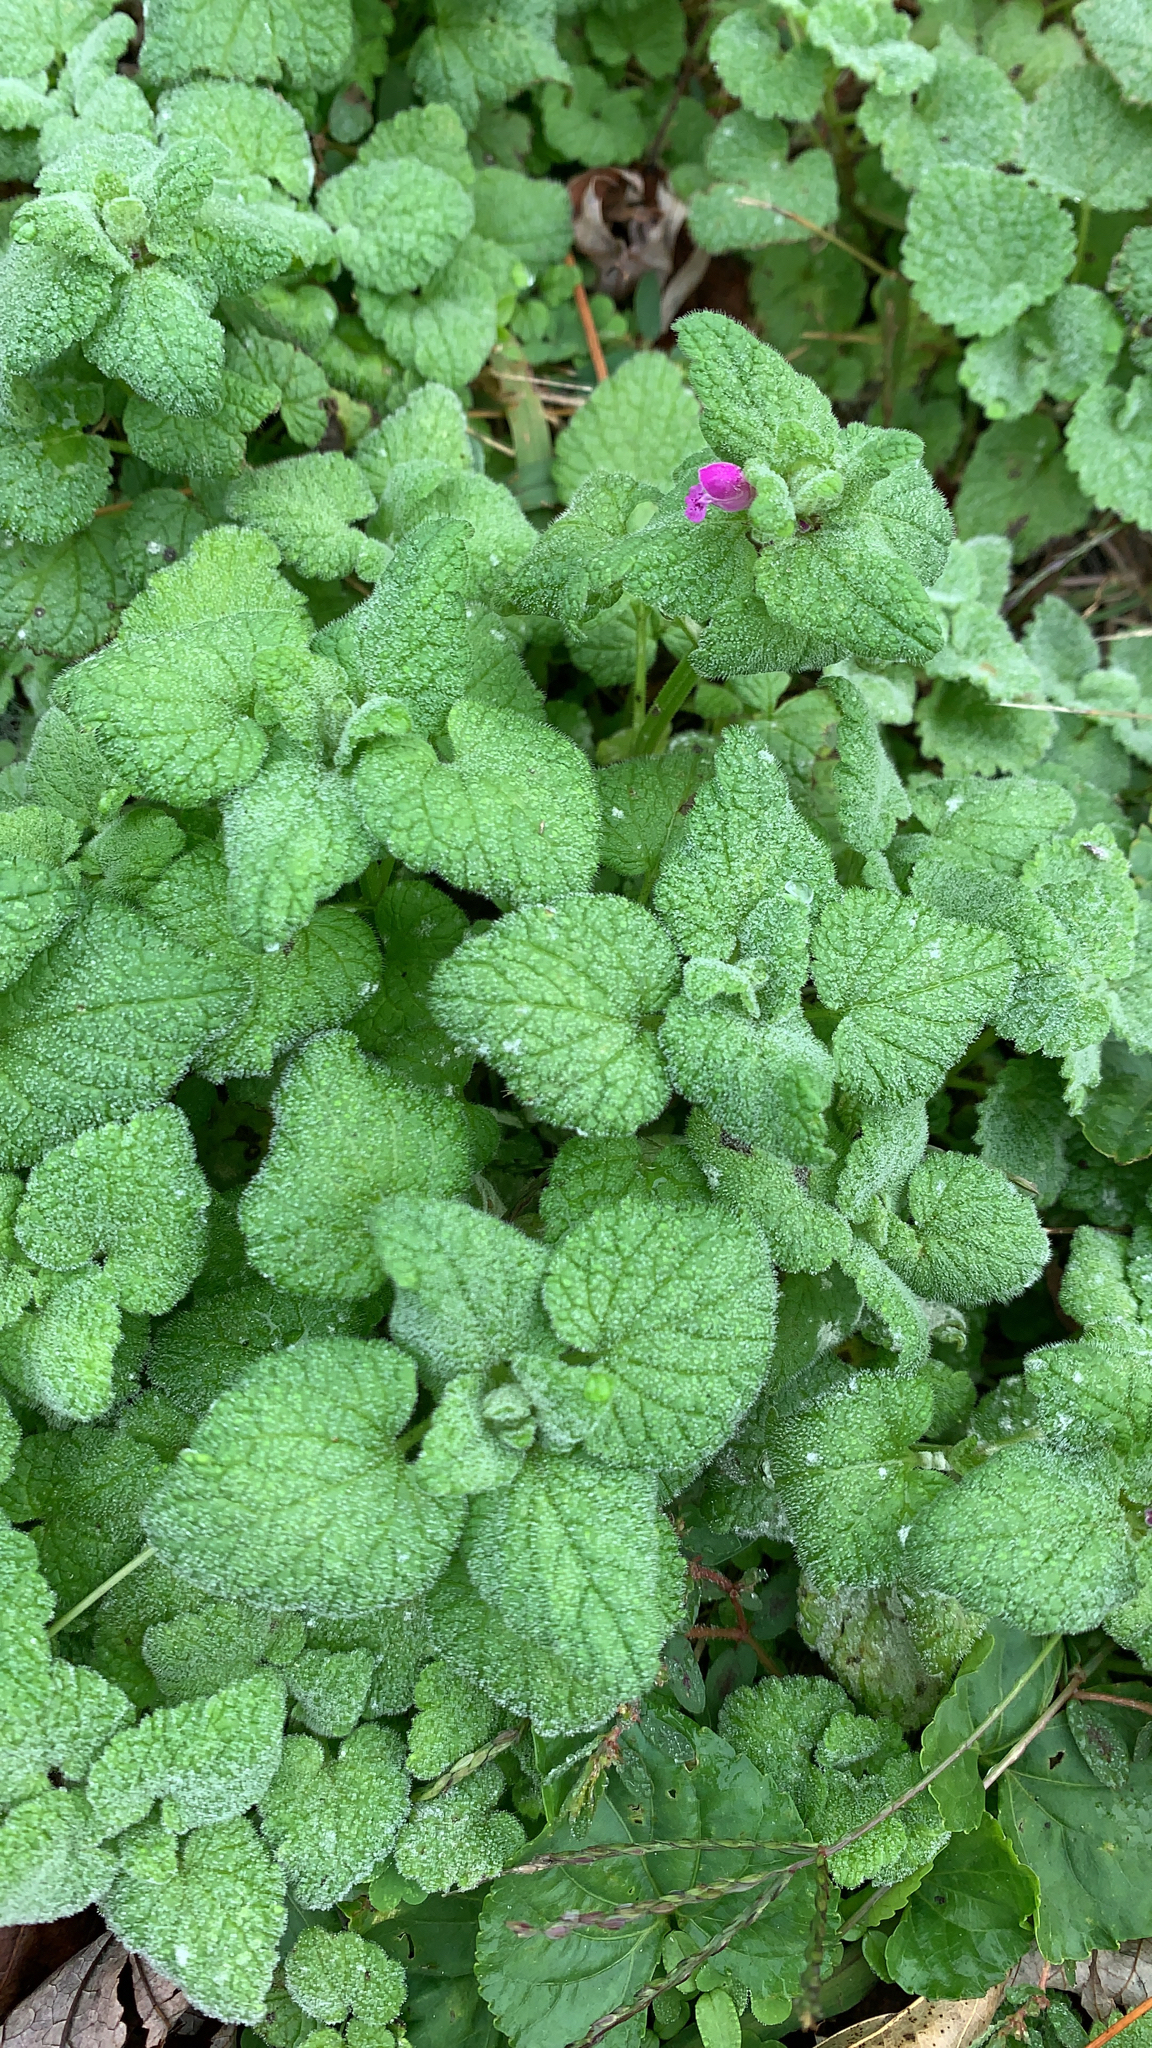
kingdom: Plantae
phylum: Tracheophyta
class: Magnoliopsida
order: Lamiales
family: Lamiaceae
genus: Lamium
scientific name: Lamium purpureum
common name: Red dead-nettle
